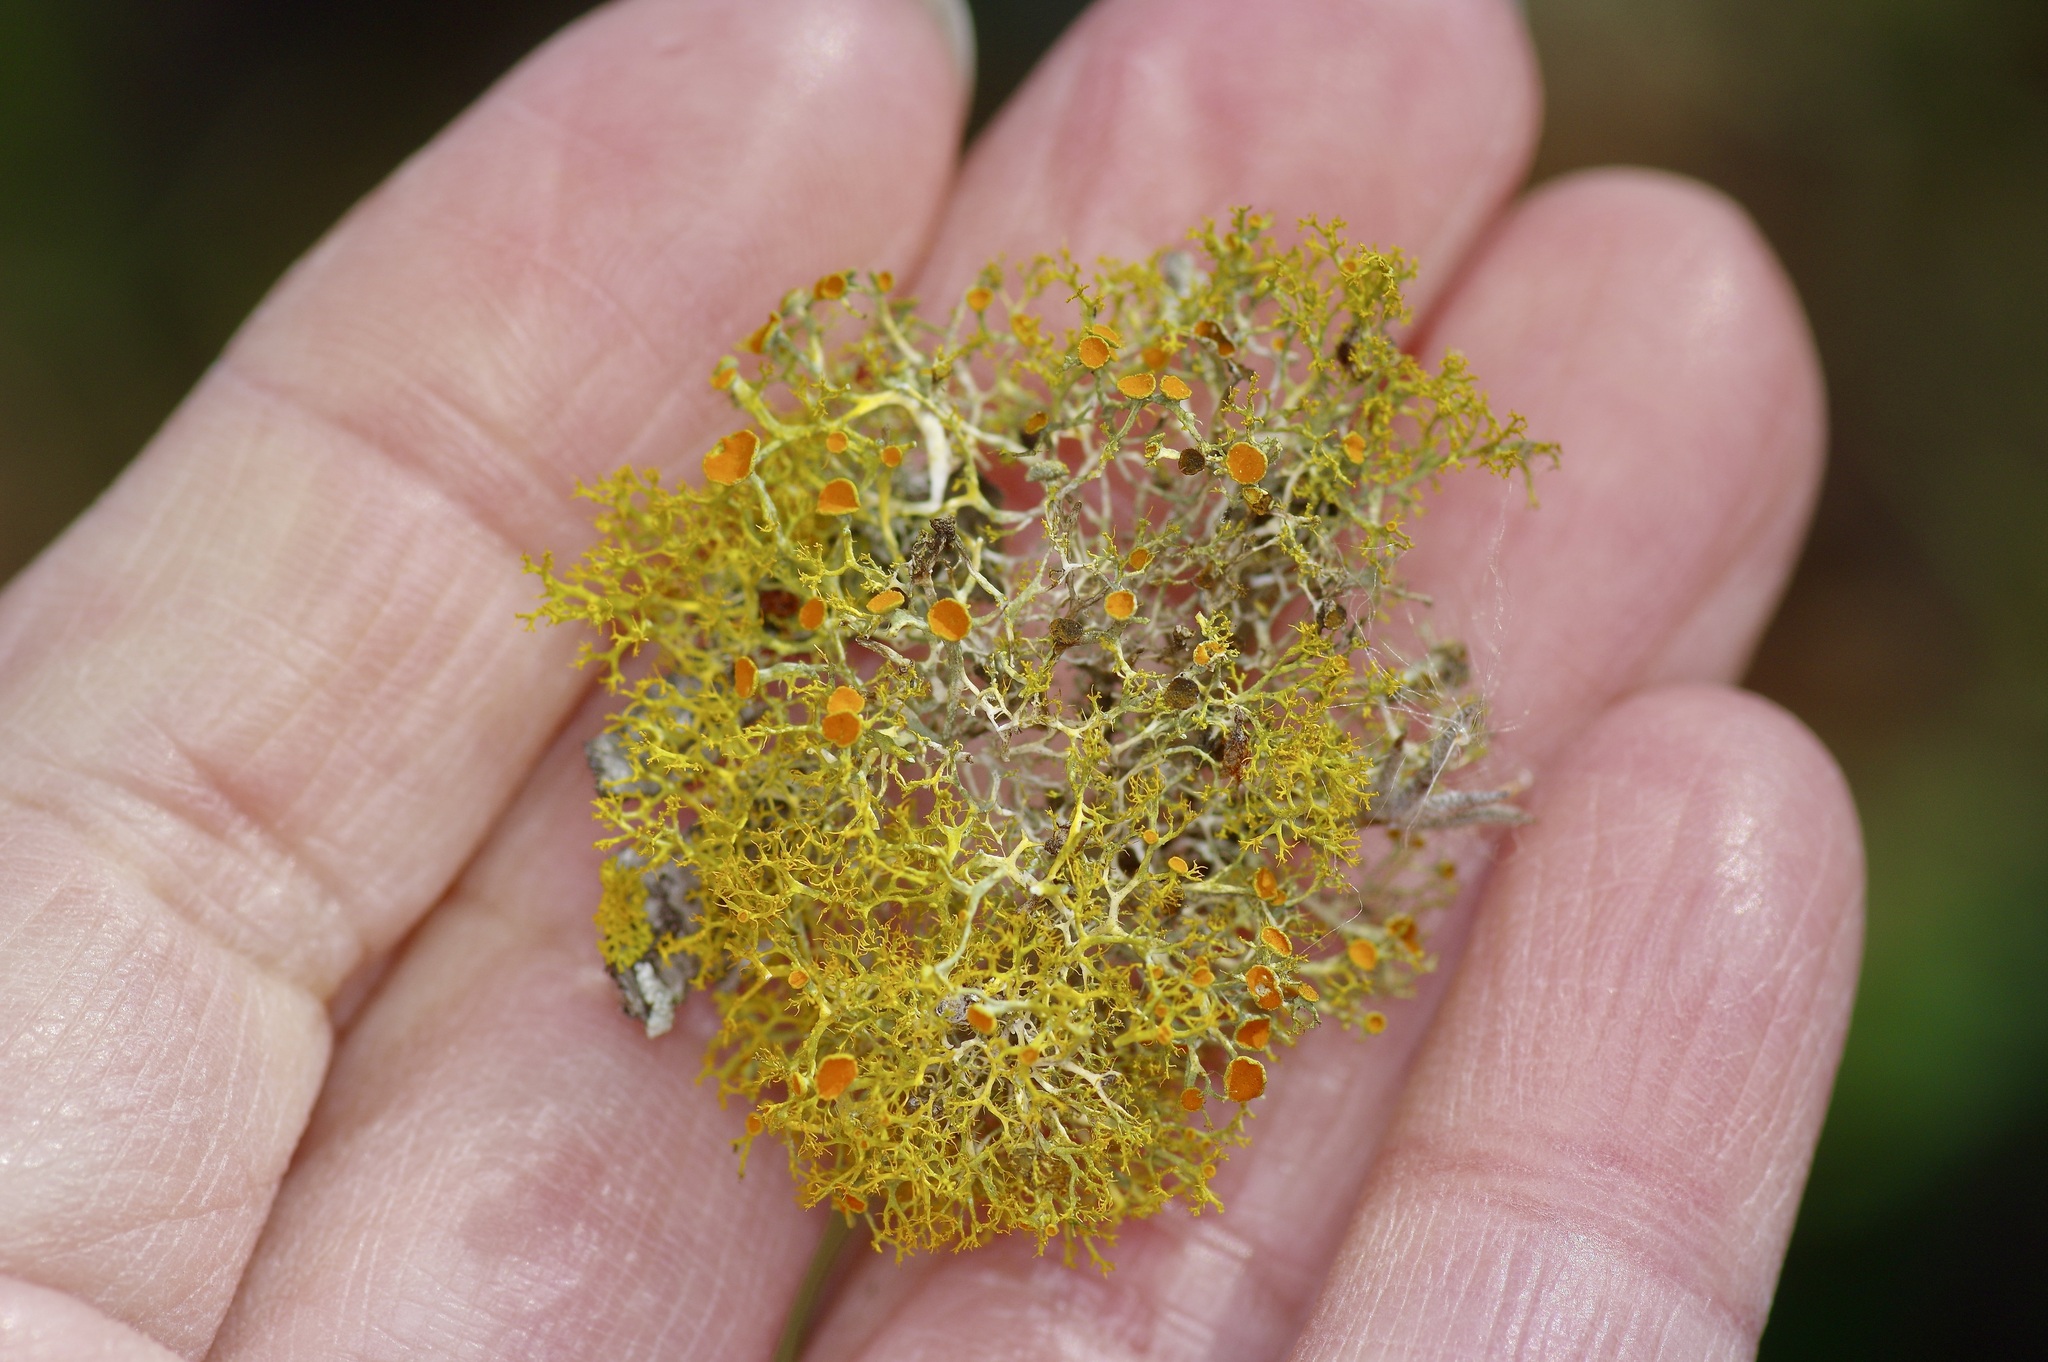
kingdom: Fungi
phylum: Ascomycota
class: Lecanoromycetes
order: Teloschistales
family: Teloschistaceae
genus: Teloschistes
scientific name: Teloschistes exilis
